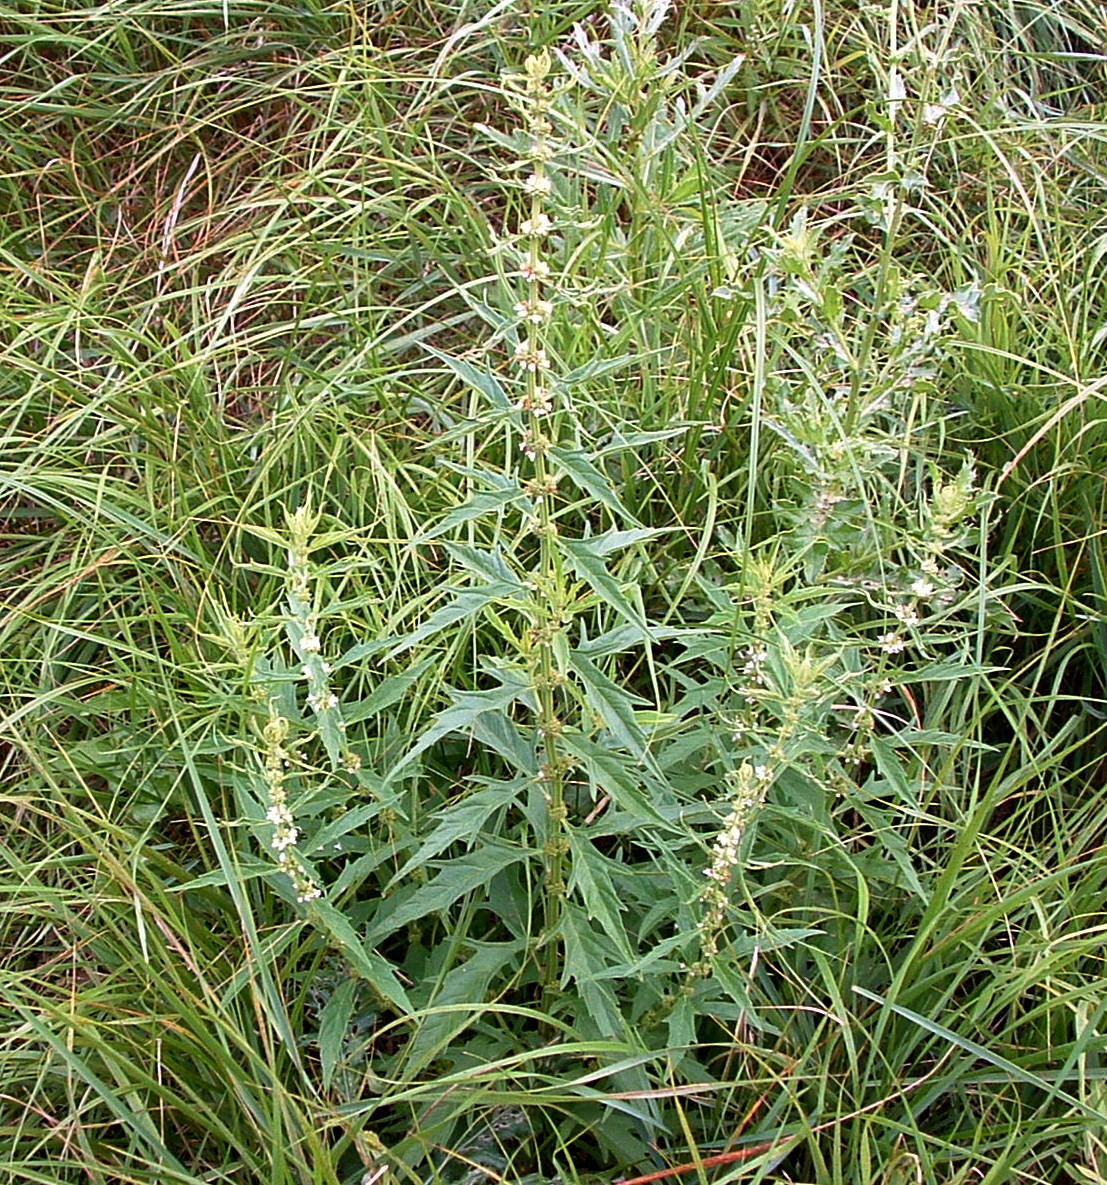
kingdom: Plantae
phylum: Tracheophyta
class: Magnoliopsida
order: Lamiales
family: Lamiaceae
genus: Lycopus
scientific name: Lycopus americanus
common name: American bugleweed
